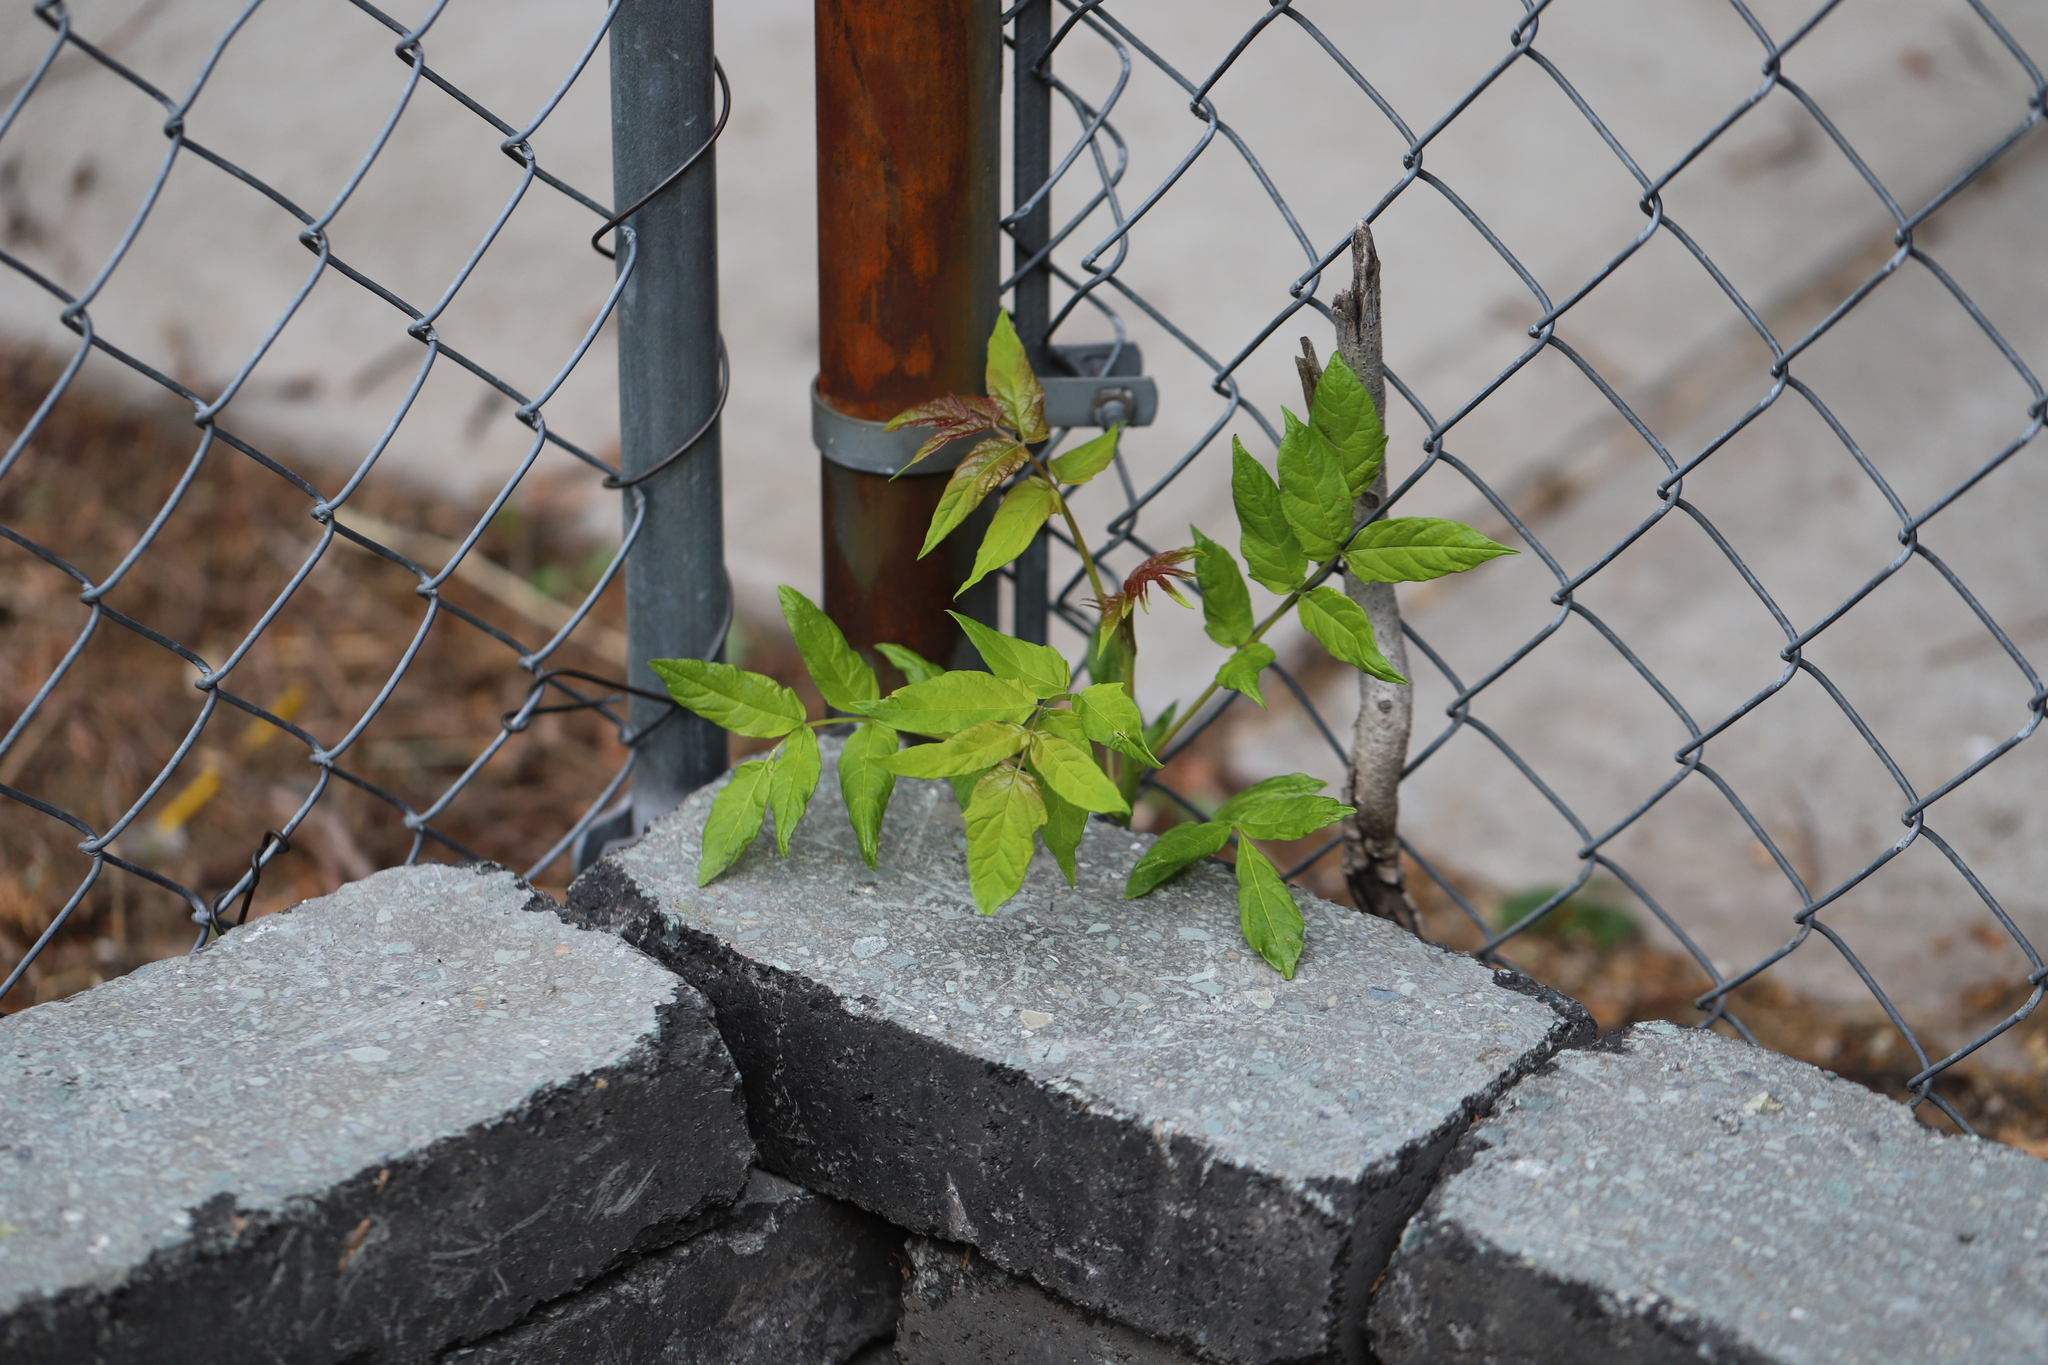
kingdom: Plantae
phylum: Tracheophyta
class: Magnoliopsida
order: Sapindales
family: Simaroubaceae
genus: Ailanthus
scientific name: Ailanthus altissima
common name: Tree-of-heaven
